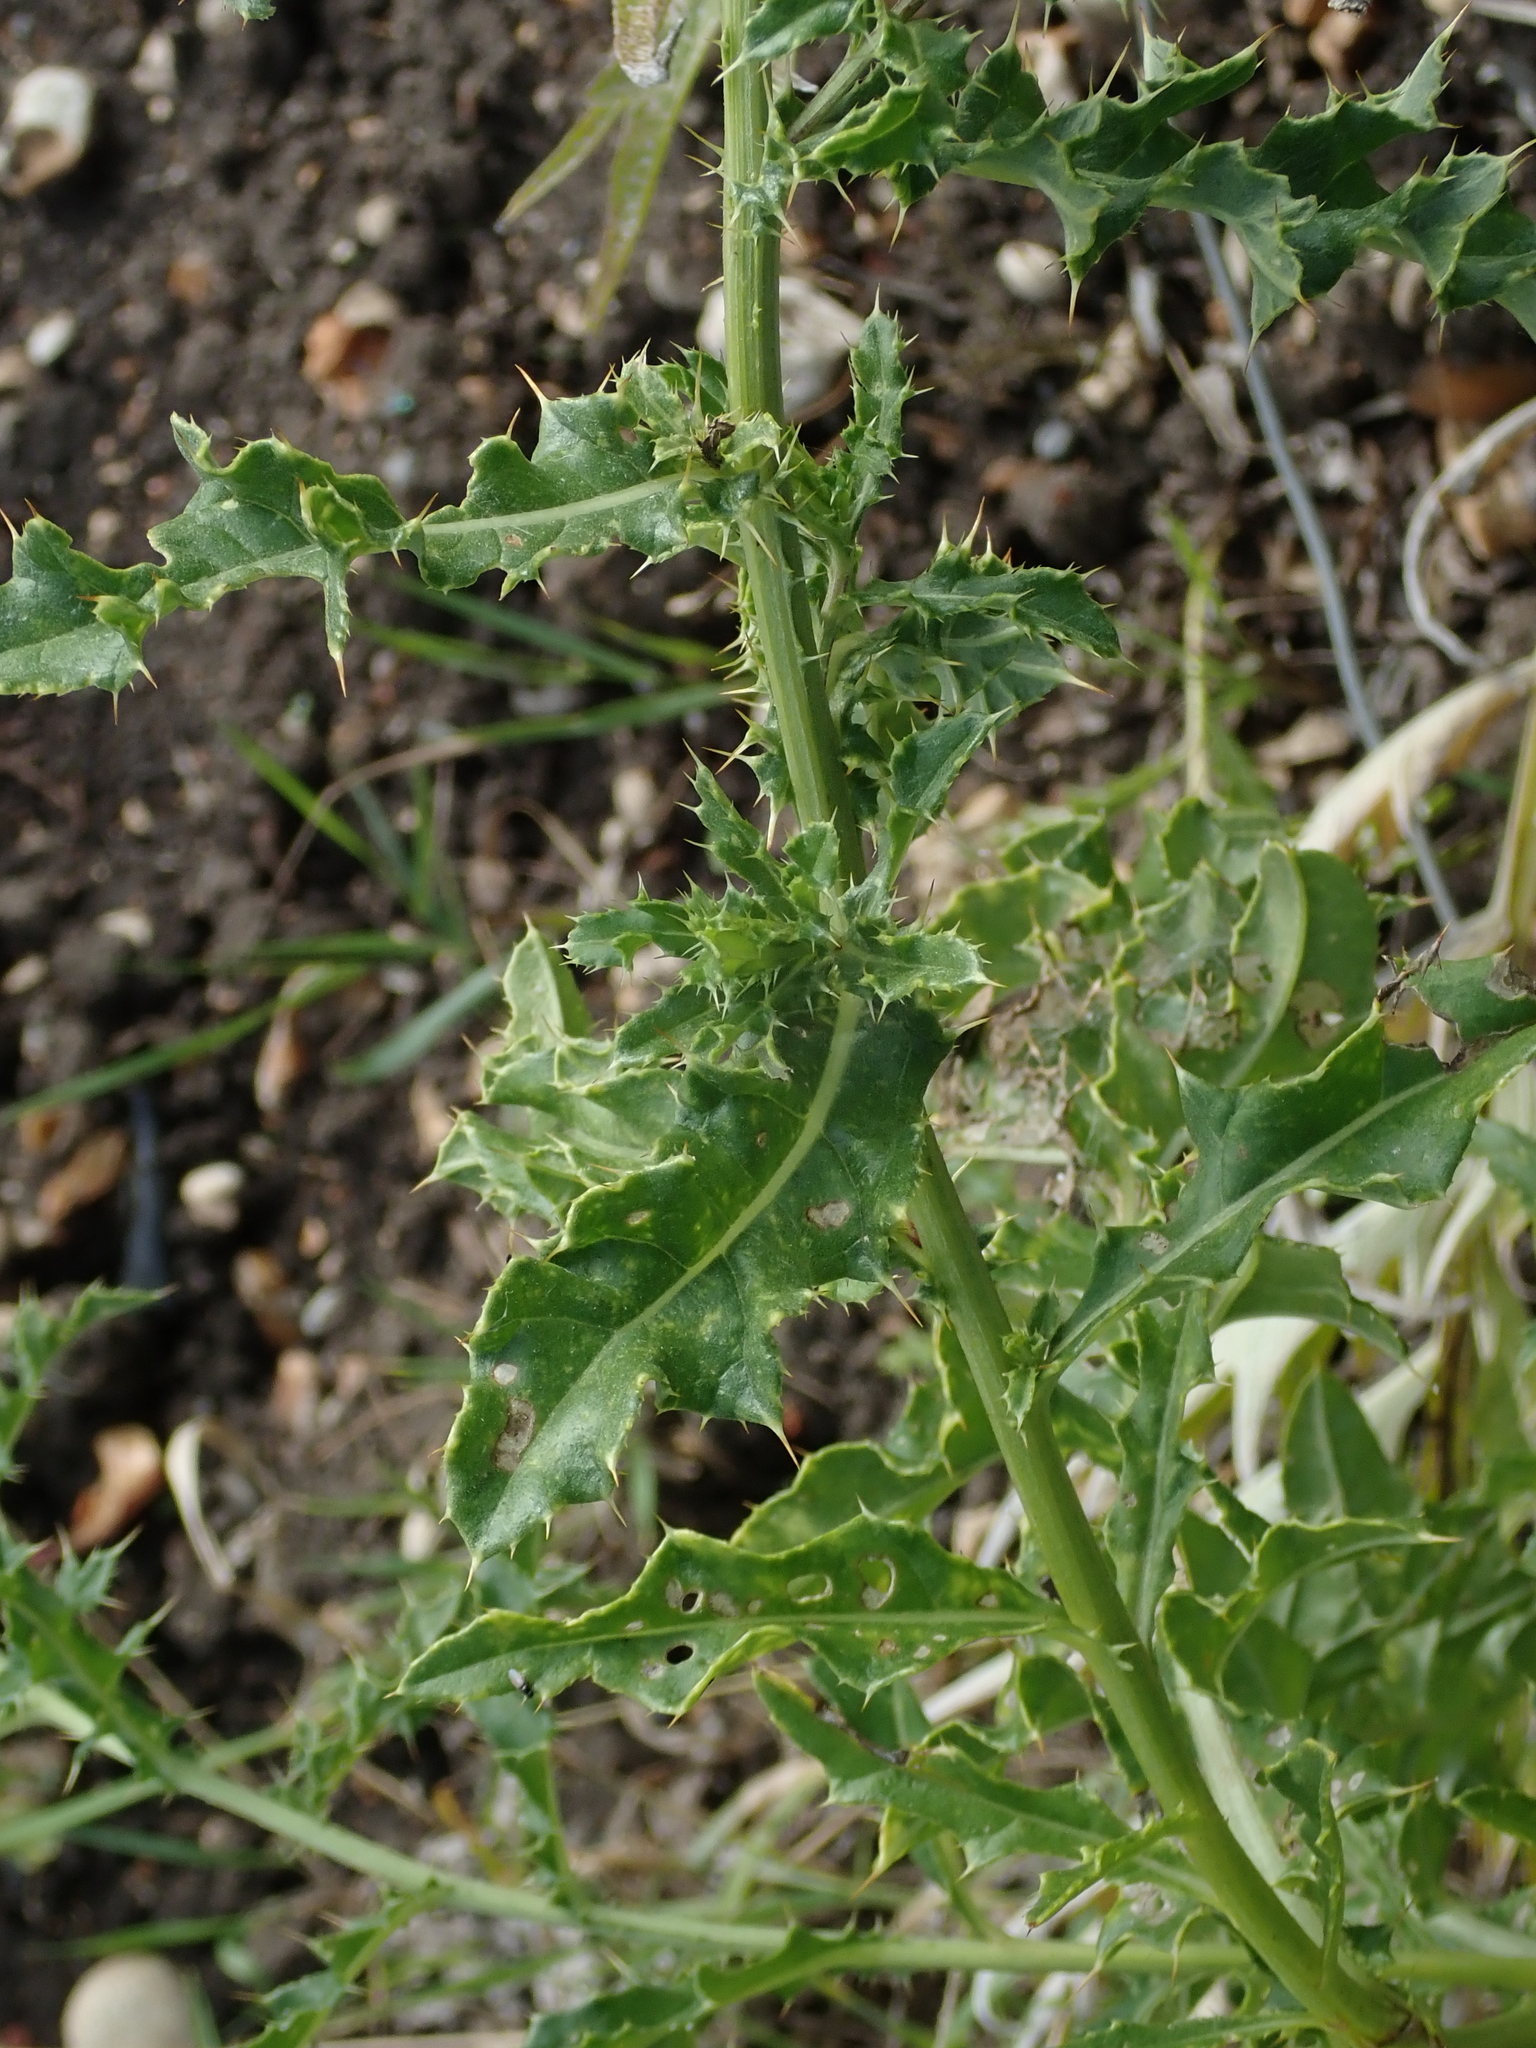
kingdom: Plantae
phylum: Tracheophyta
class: Magnoliopsida
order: Asterales
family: Asteraceae
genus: Cirsium
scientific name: Cirsium arvense
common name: Creeping thistle
